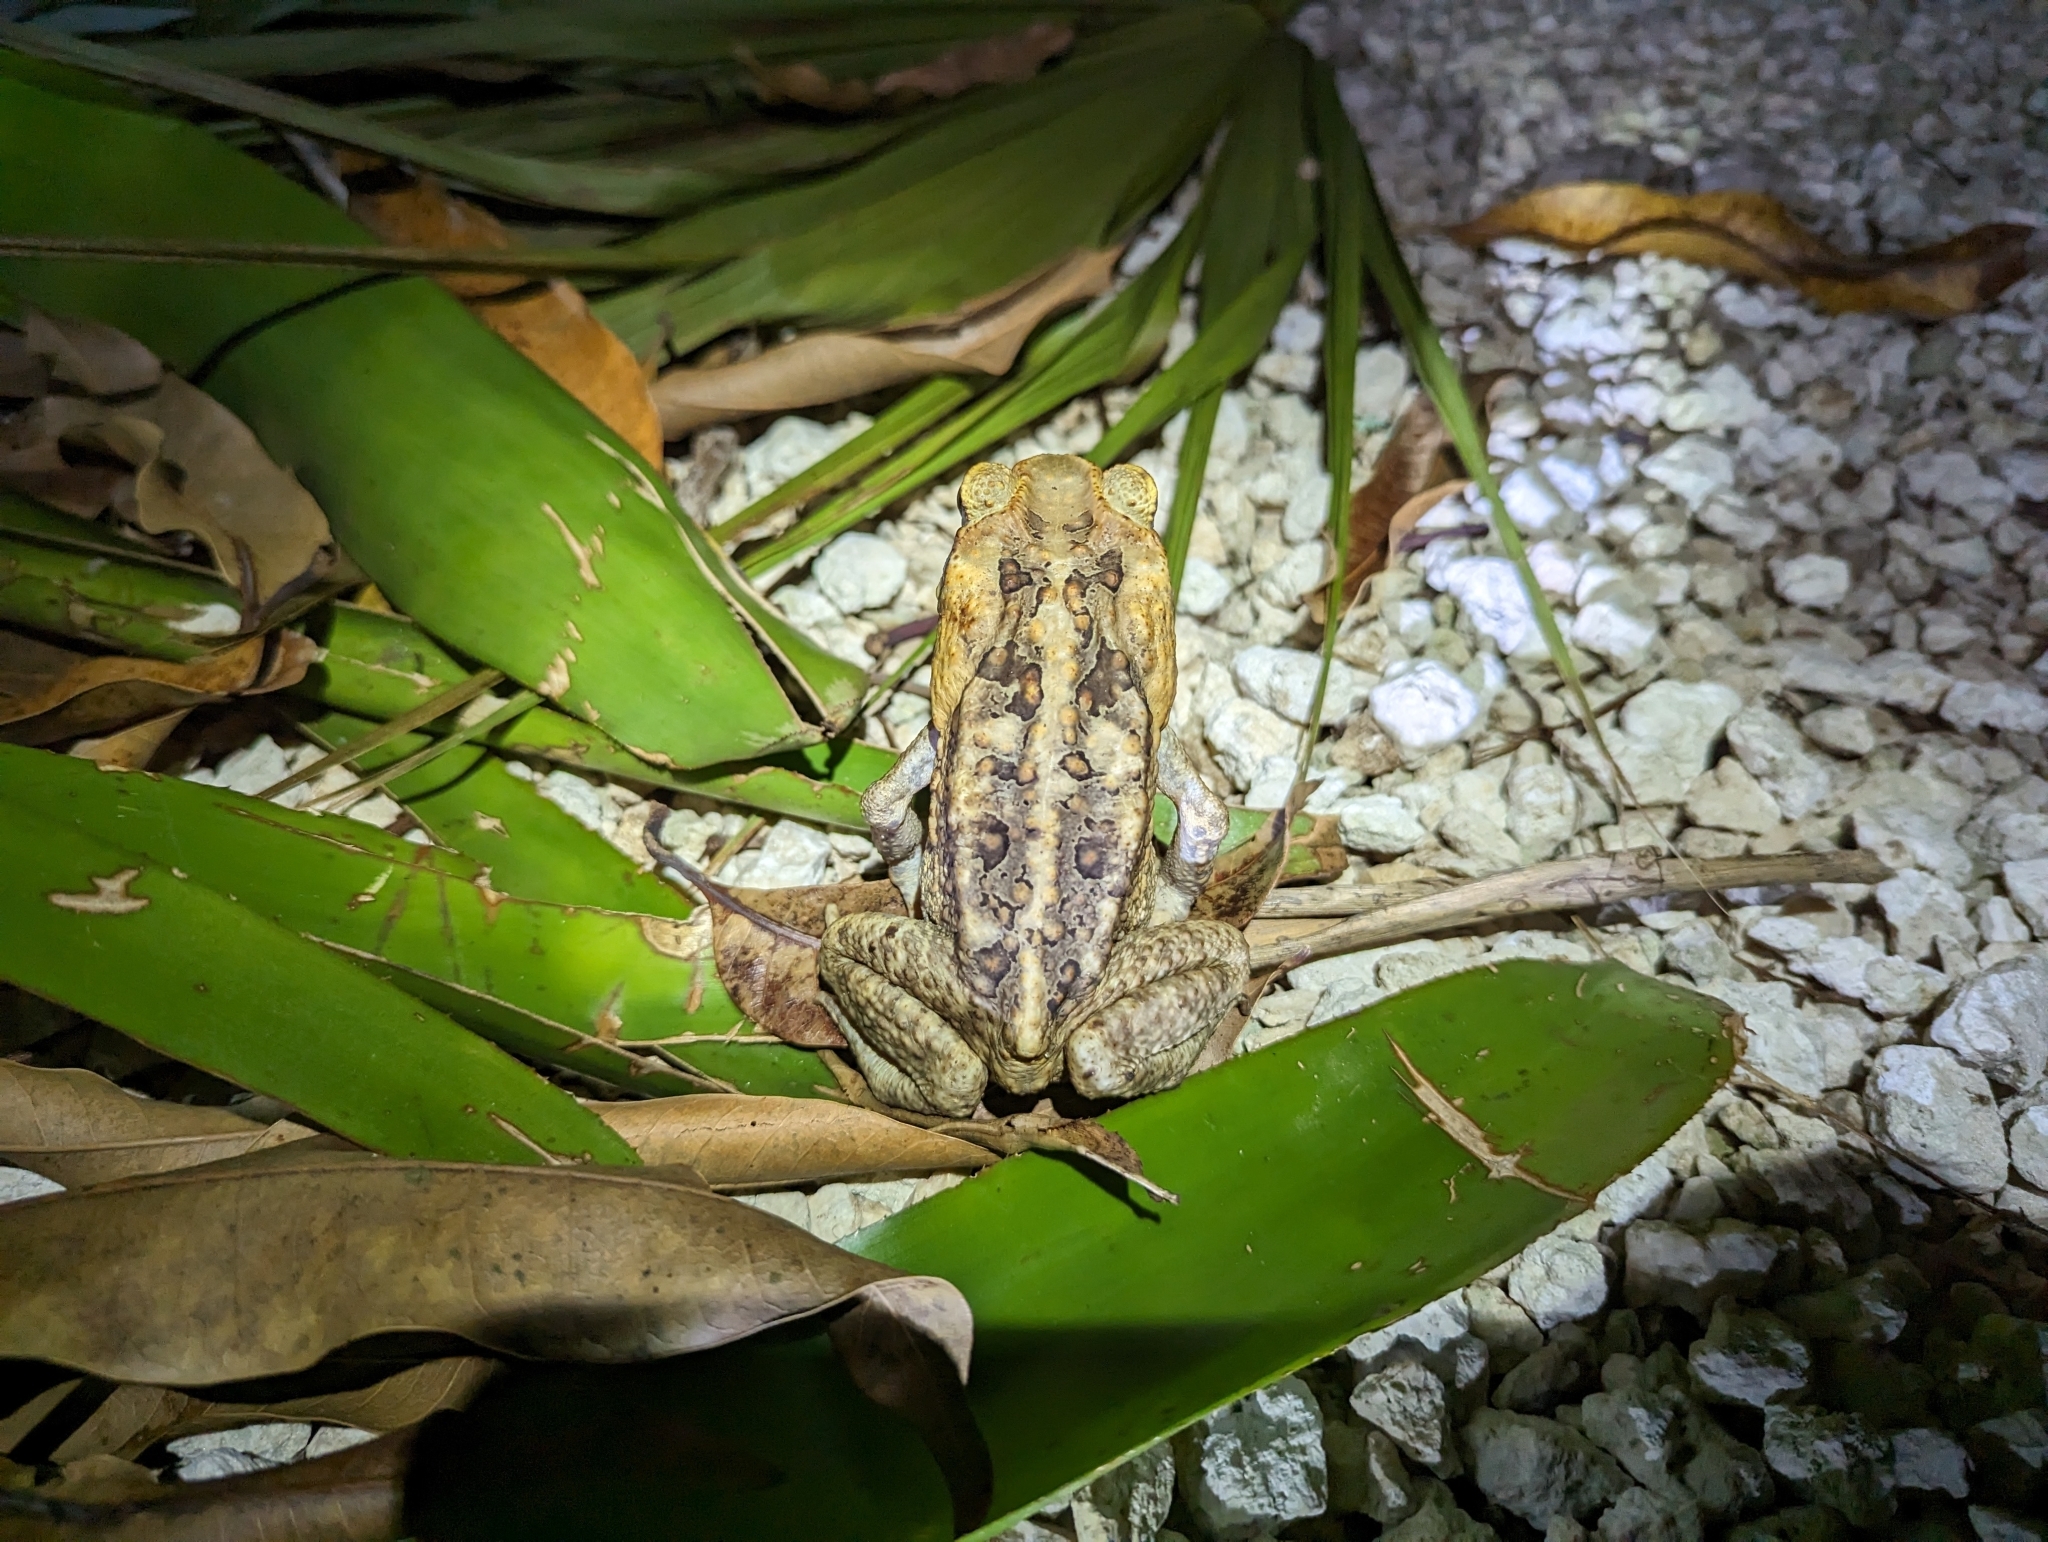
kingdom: Animalia
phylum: Chordata
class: Amphibia
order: Anura
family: Bufonidae
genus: Rhinella
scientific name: Rhinella marina
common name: Cane toad
